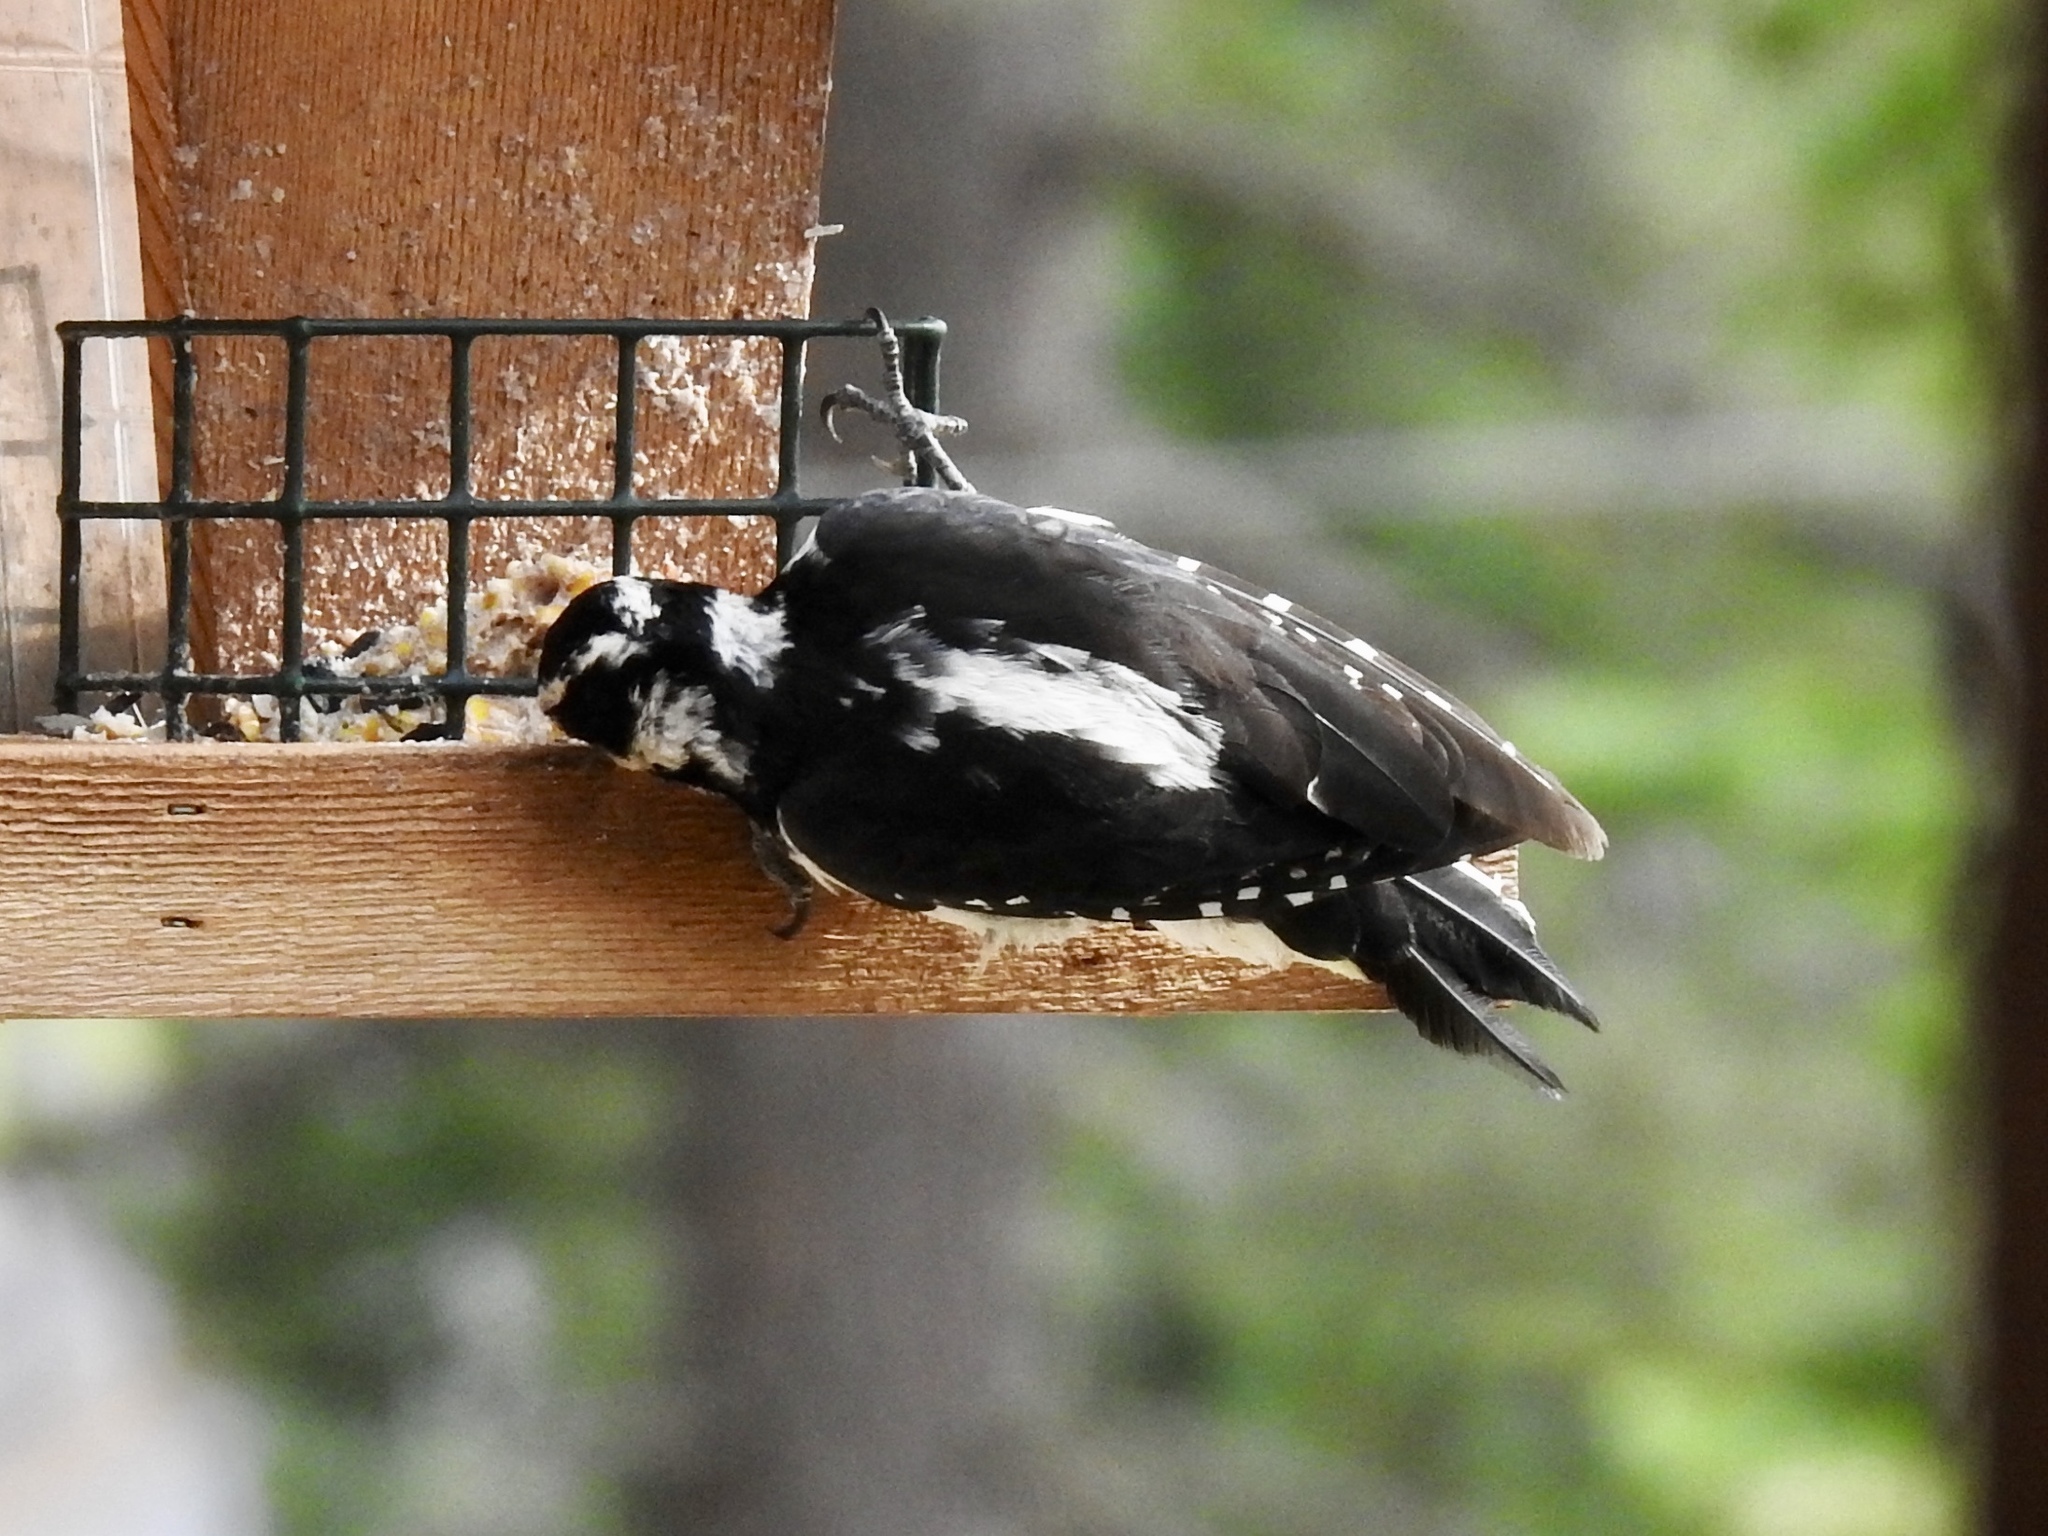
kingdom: Animalia
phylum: Chordata
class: Aves
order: Piciformes
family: Picidae
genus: Leuconotopicus
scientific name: Leuconotopicus villosus
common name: Hairy woodpecker
